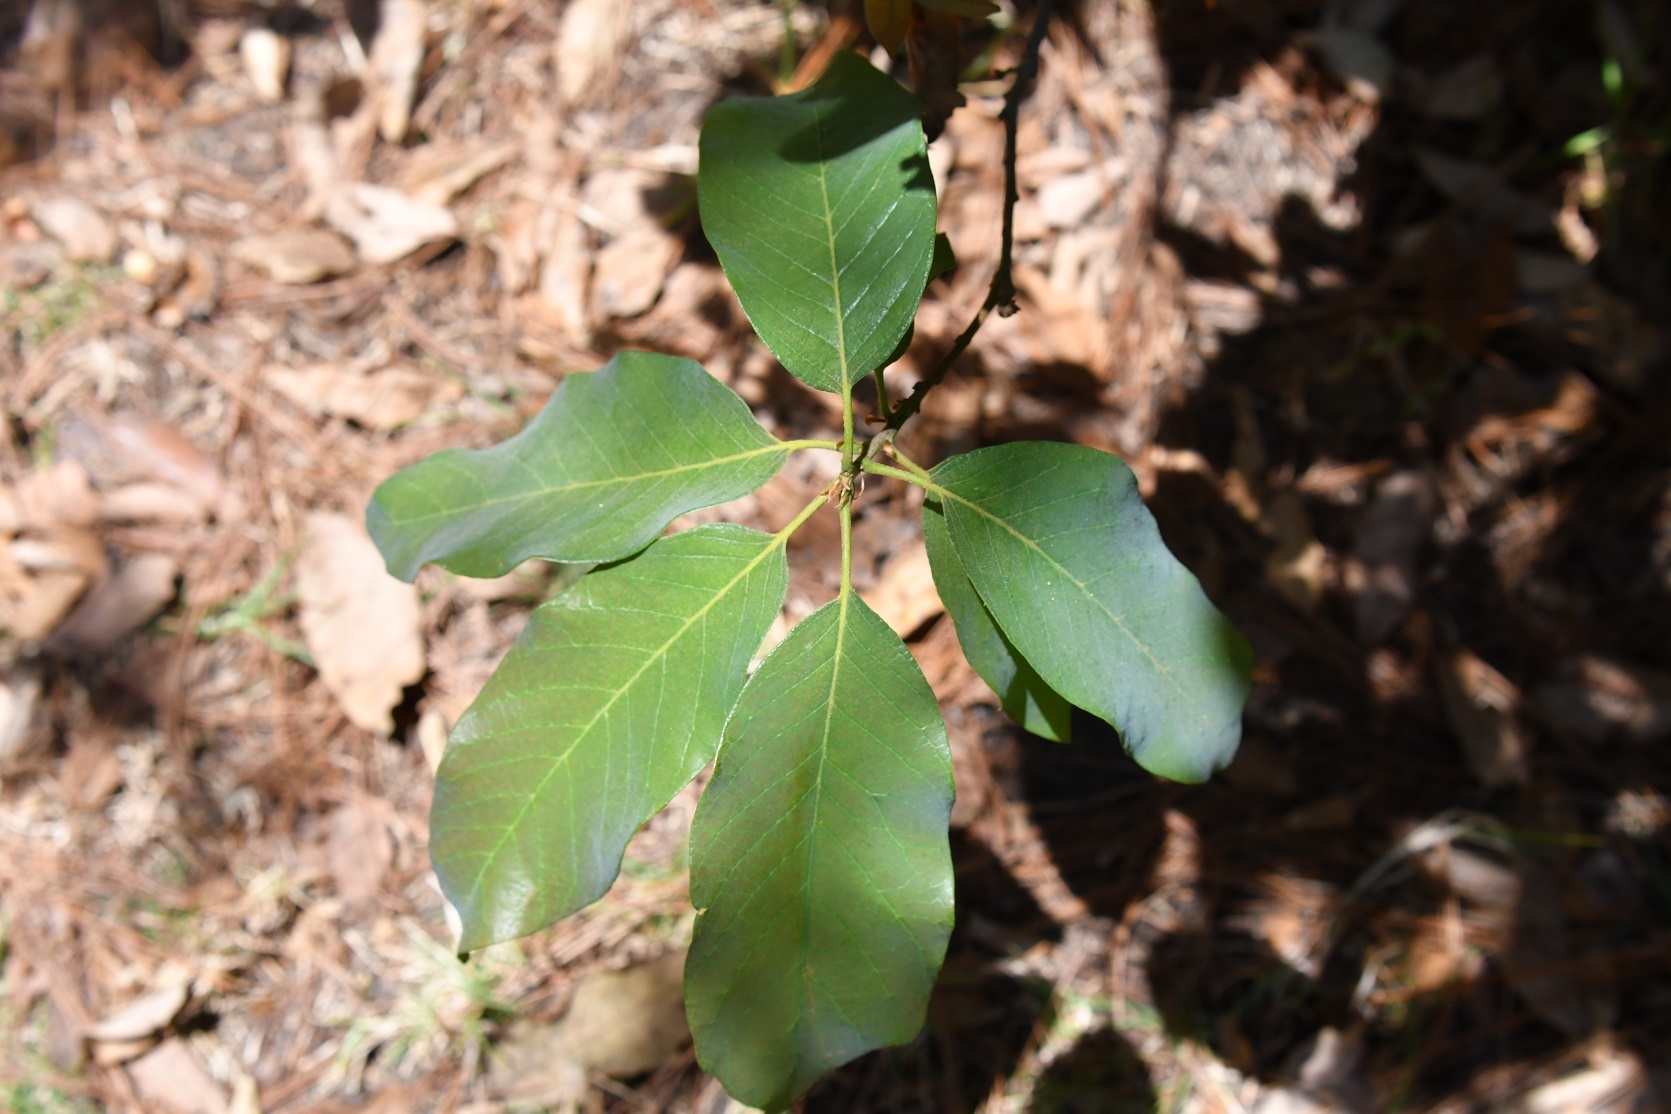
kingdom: Plantae
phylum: Tracheophyta
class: Magnoliopsida
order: Fagales
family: Fagaceae
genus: Quercus
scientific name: Quercus polymorpha
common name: Mexican white oak
